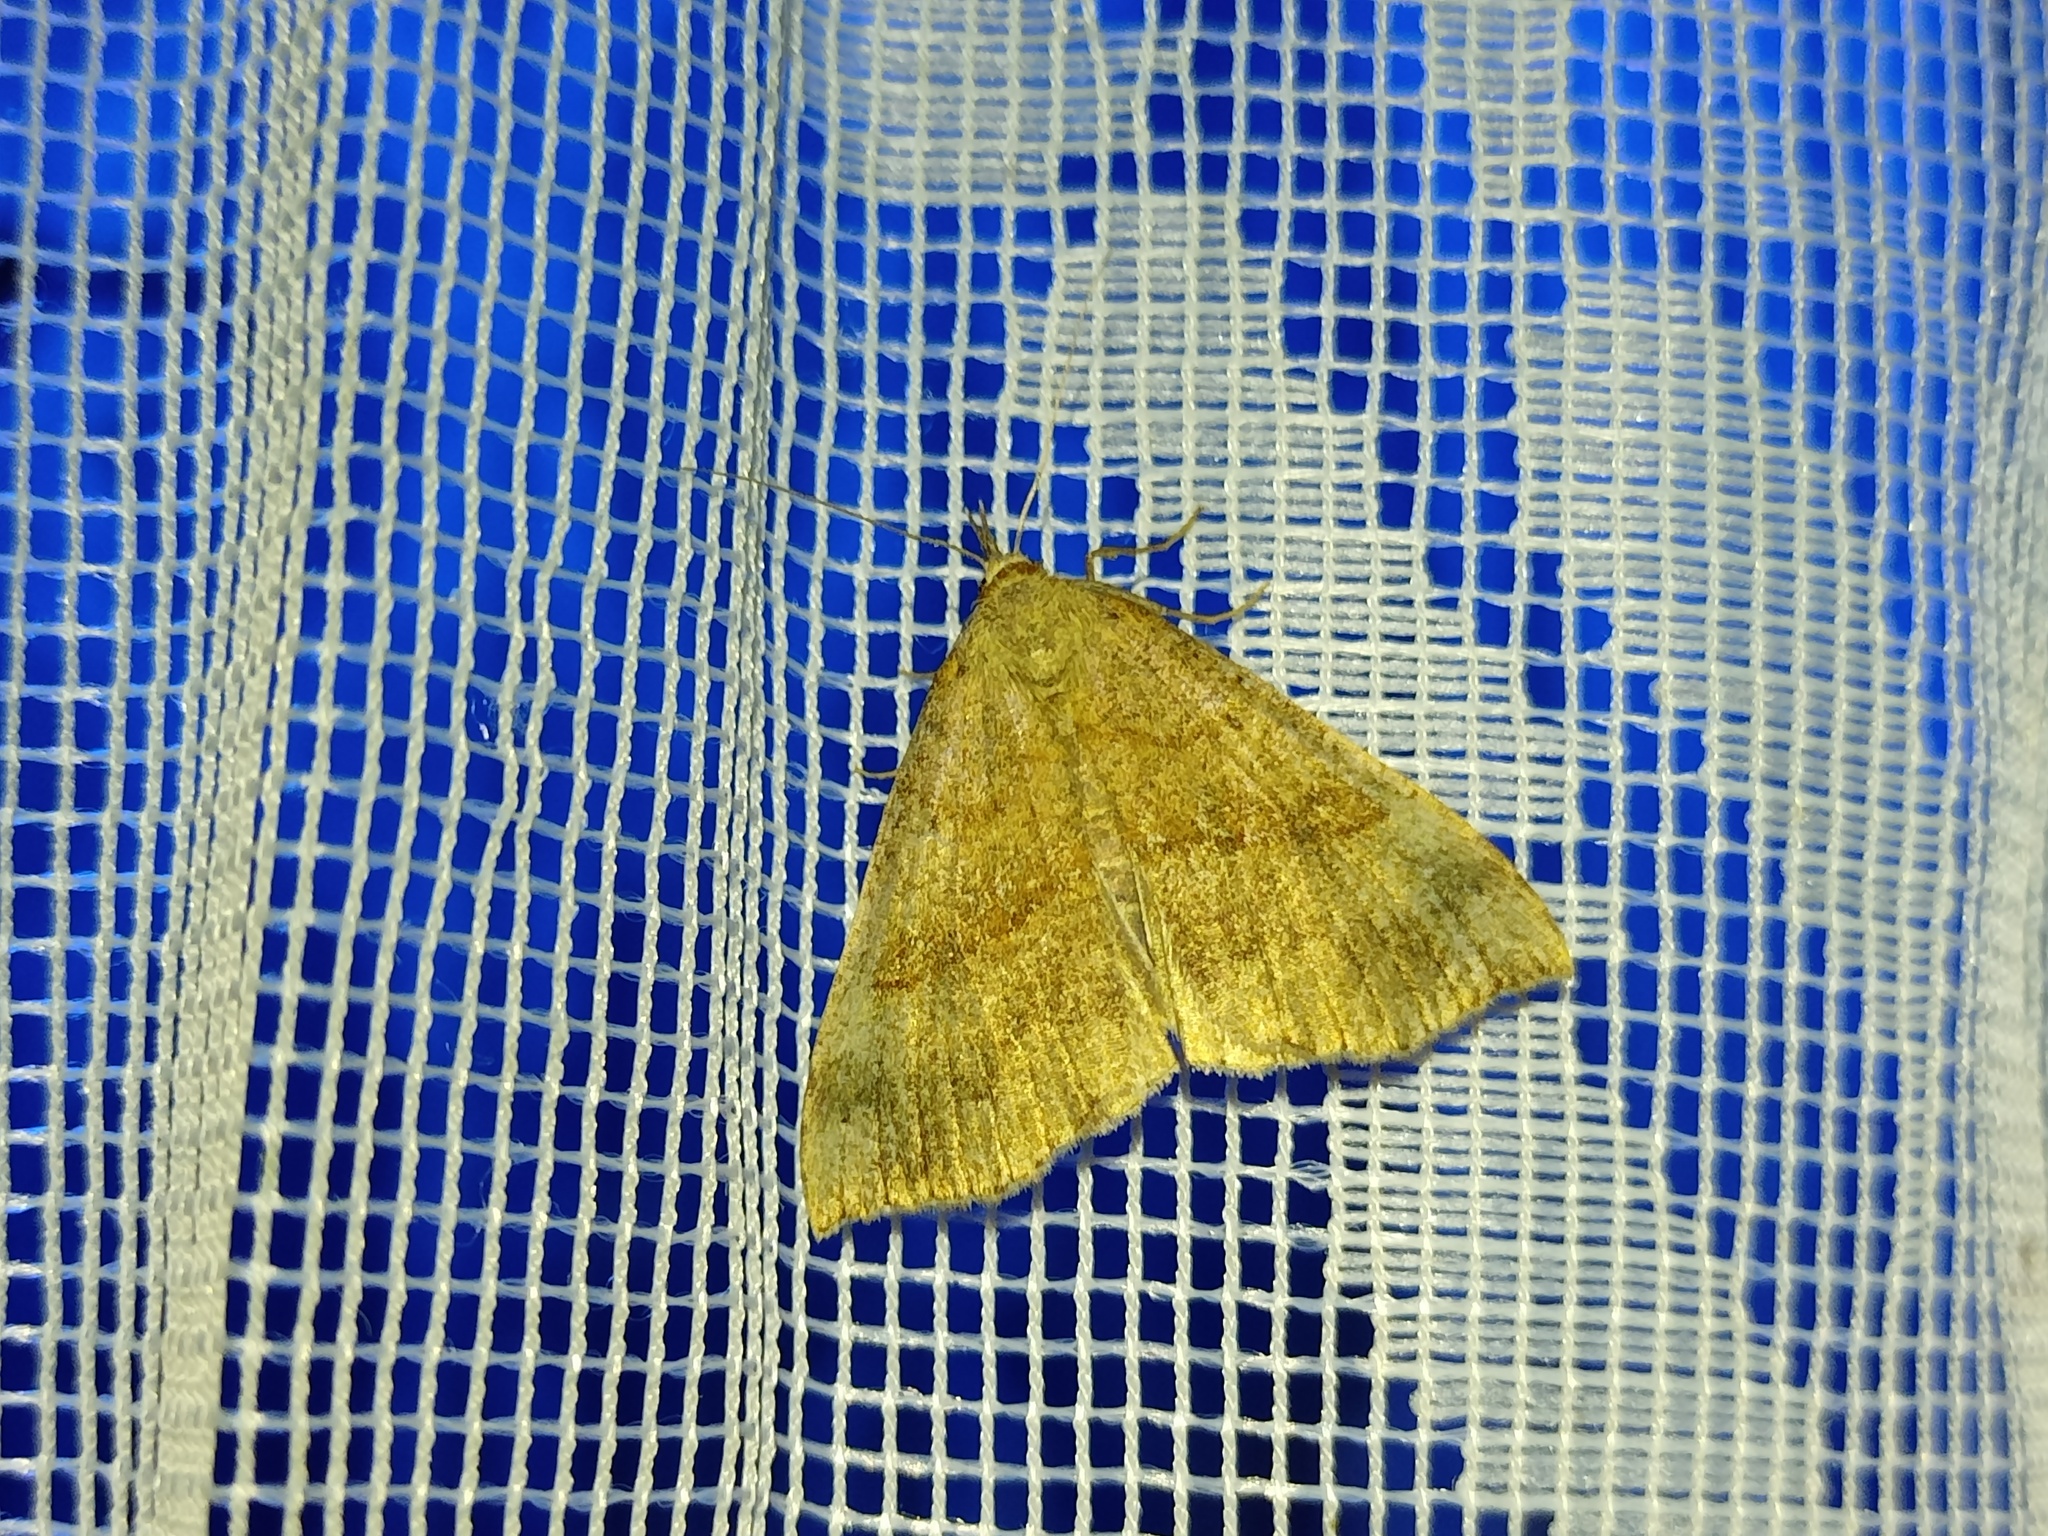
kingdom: Animalia
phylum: Arthropoda
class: Insecta
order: Lepidoptera
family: Erebidae
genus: Hypena
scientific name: Hypena proboscidalis
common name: Snout
